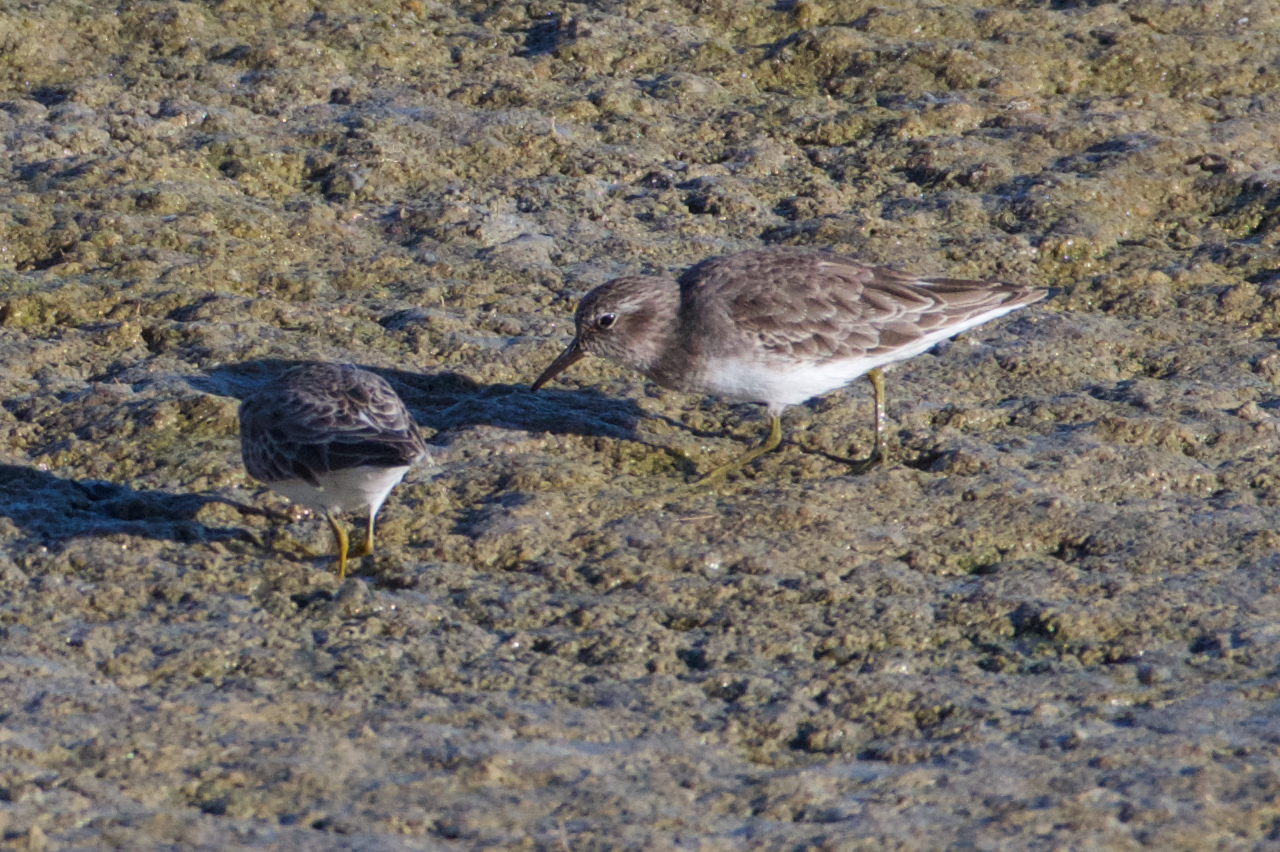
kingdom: Animalia
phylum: Chordata
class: Aves
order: Charadriiformes
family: Scolopacidae
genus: Calidris
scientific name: Calidris minutilla
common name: Least sandpiper
